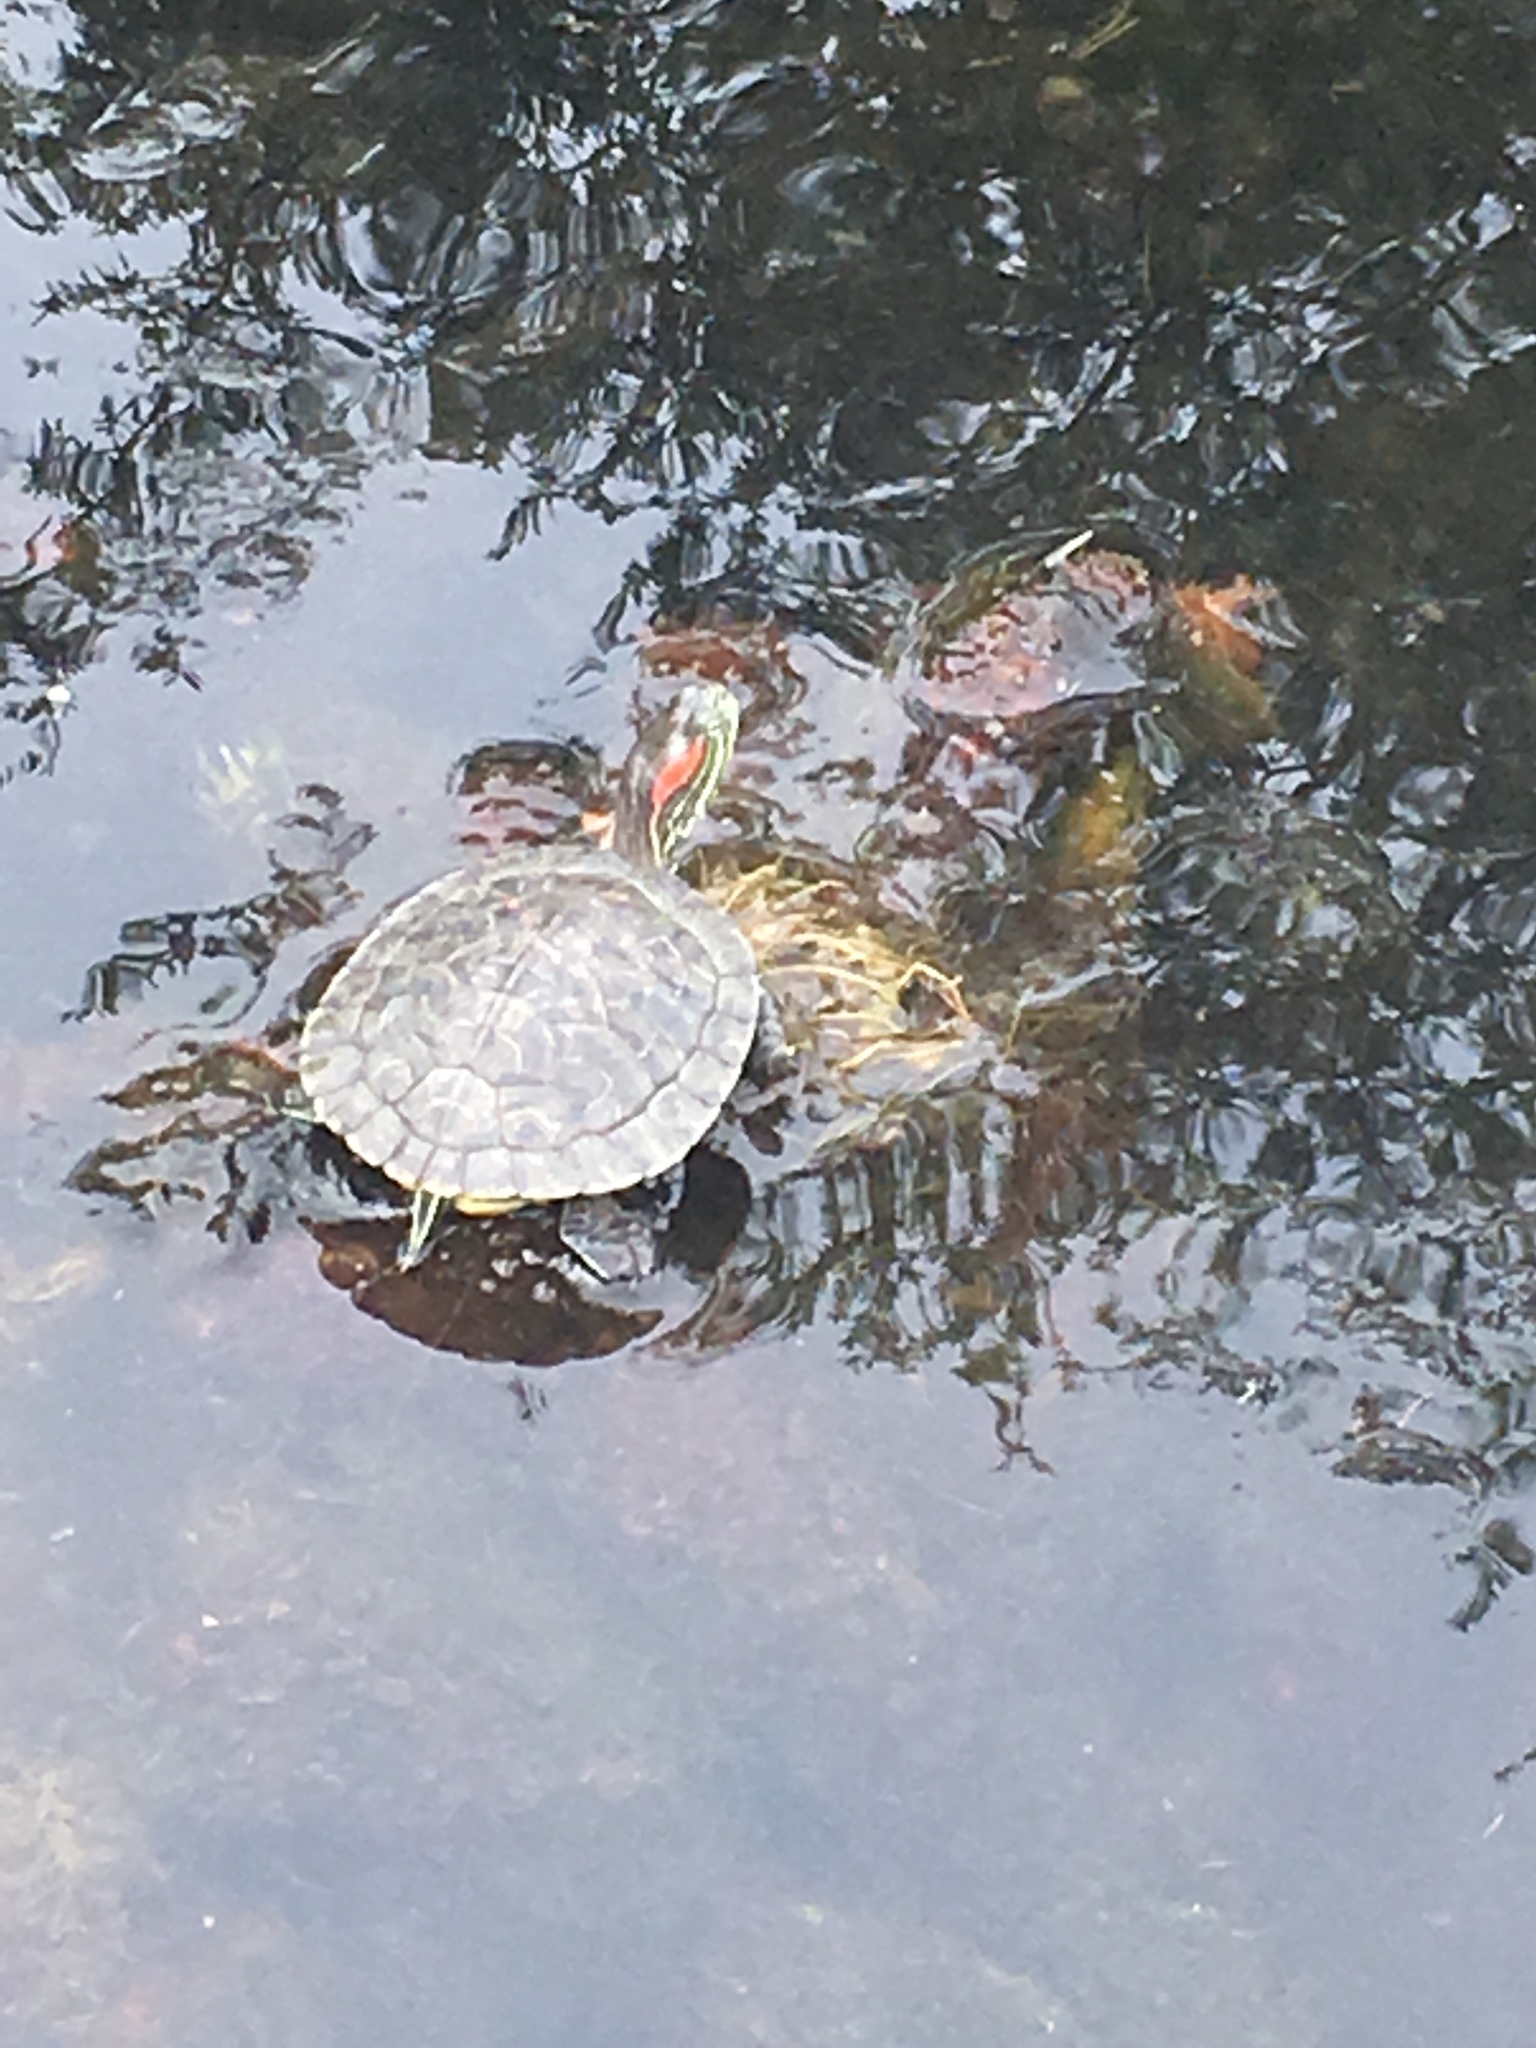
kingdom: Animalia
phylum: Chordata
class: Testudines
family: Emydidae
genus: Trachemys
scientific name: Trachemys scripta
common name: Slider
